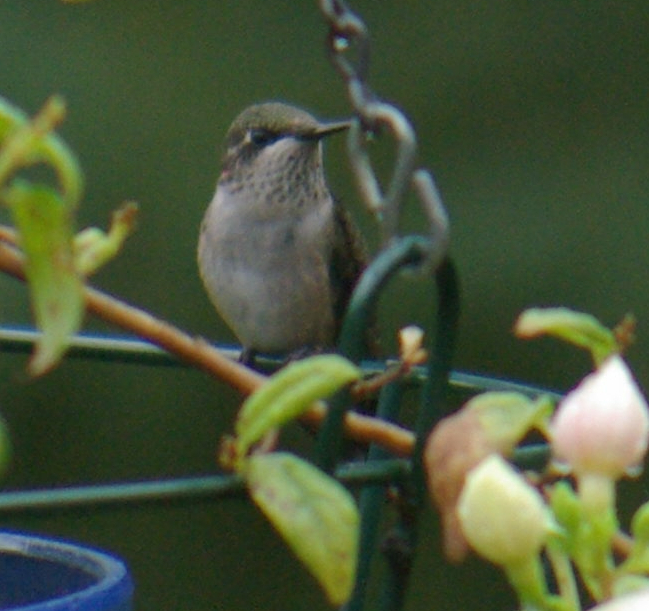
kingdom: Animalia
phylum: Chordata
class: Aves
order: Apodiformes
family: Trochilidae
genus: Archilochus
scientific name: Archilochus colubris
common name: Ruby-throated hummingbird
